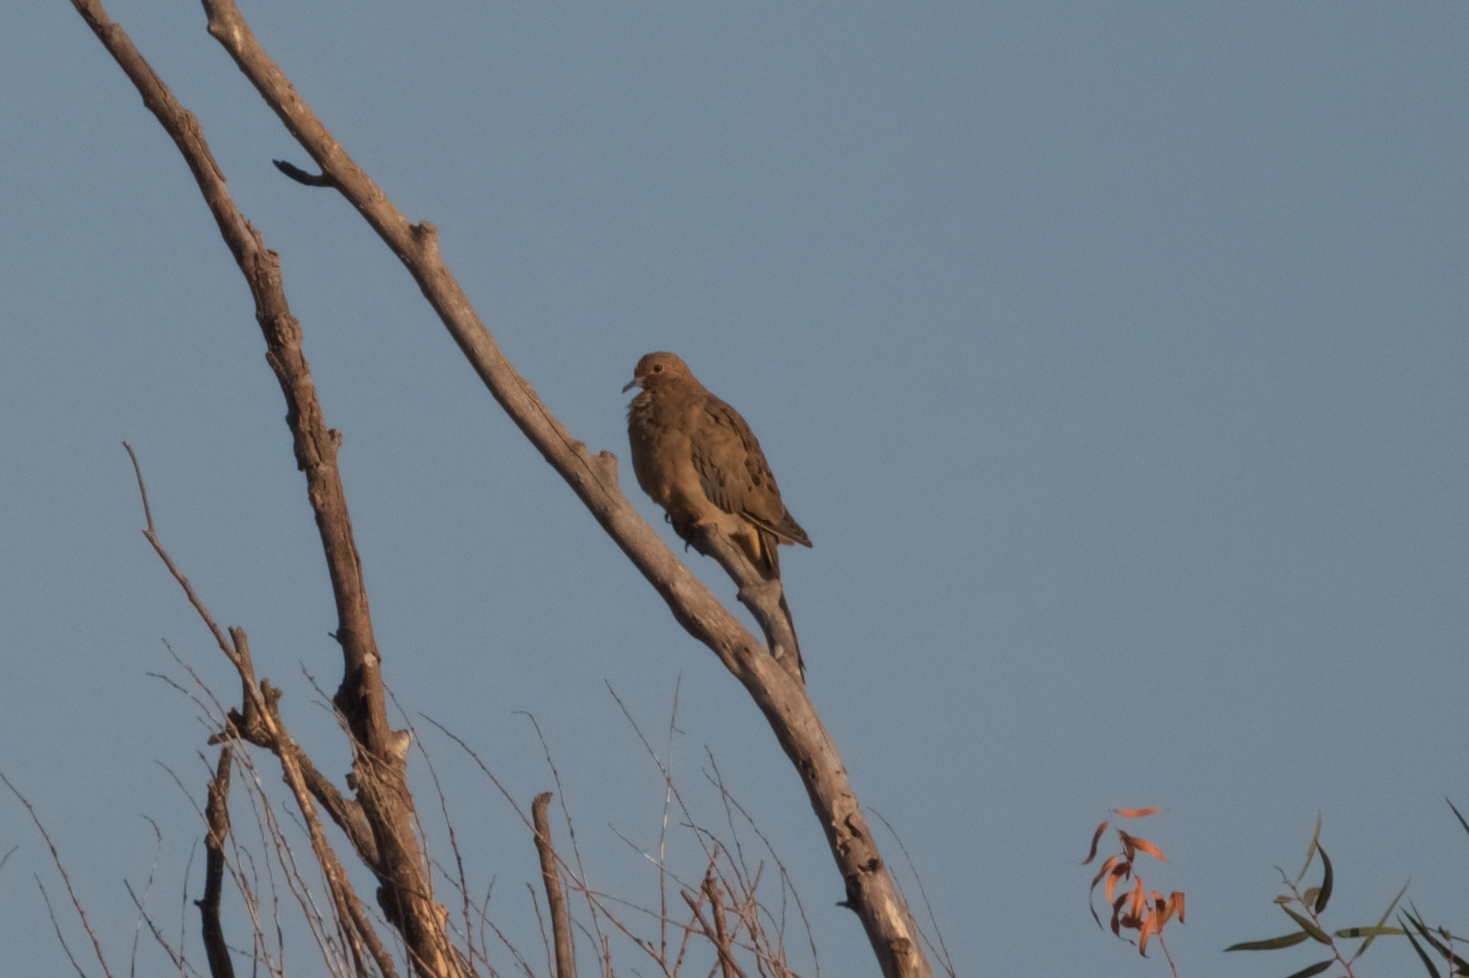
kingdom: Animalia
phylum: Chordata
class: Aves
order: Columbiformes
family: Columbidae
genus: Zenaida
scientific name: Zenaida macroura
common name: Mourning dove
